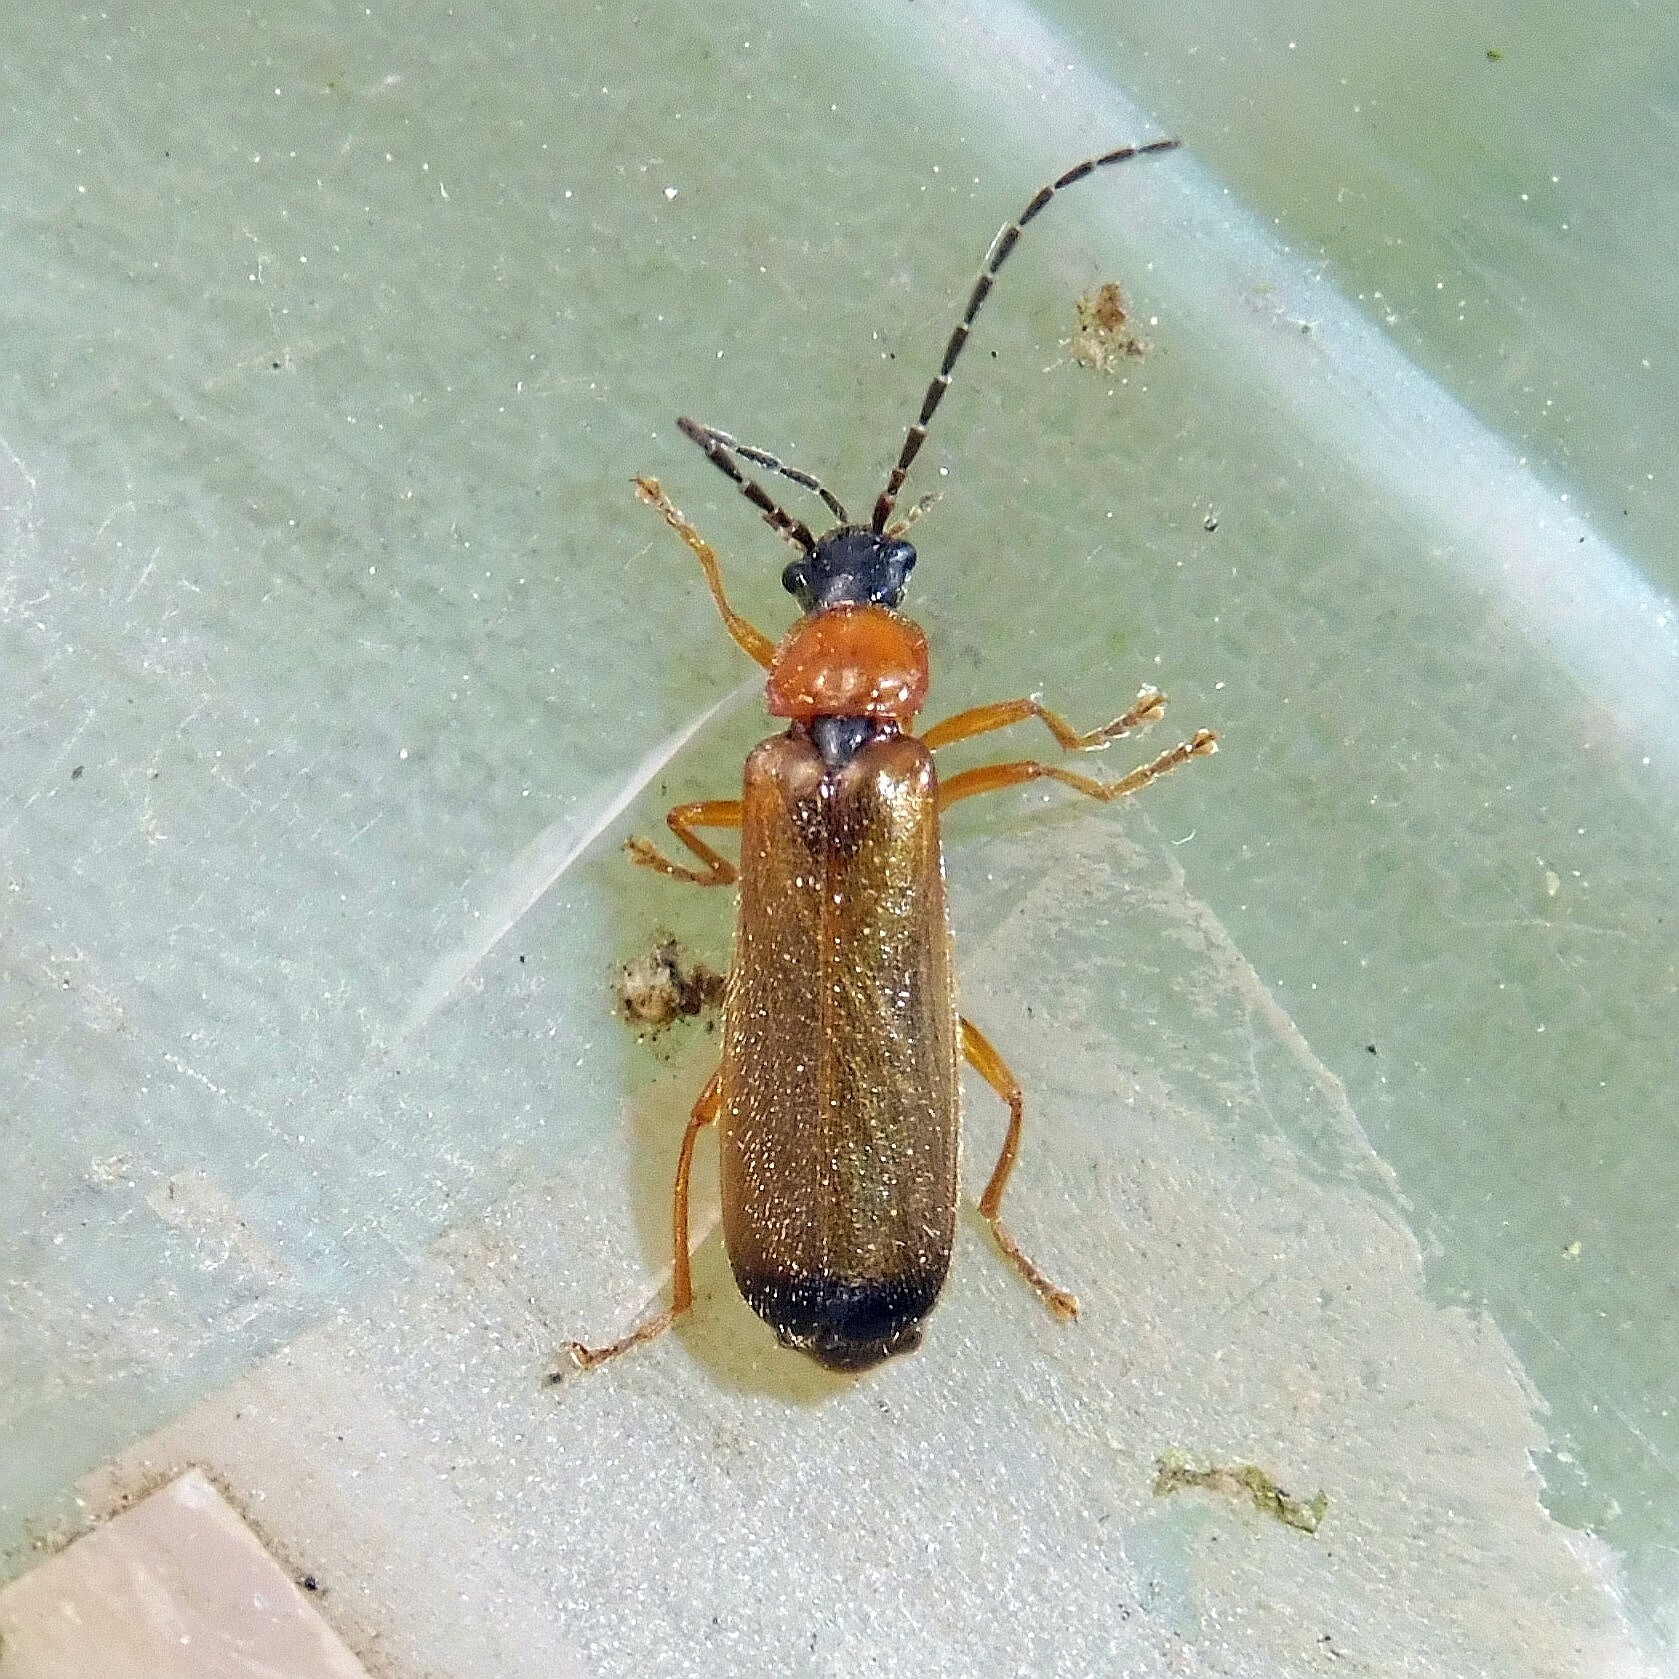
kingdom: Animalia
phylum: Arthropoda
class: Insecta
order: Coleoptera
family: Cantharidae
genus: Rhagonycha
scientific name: Rhagonycha lutea
